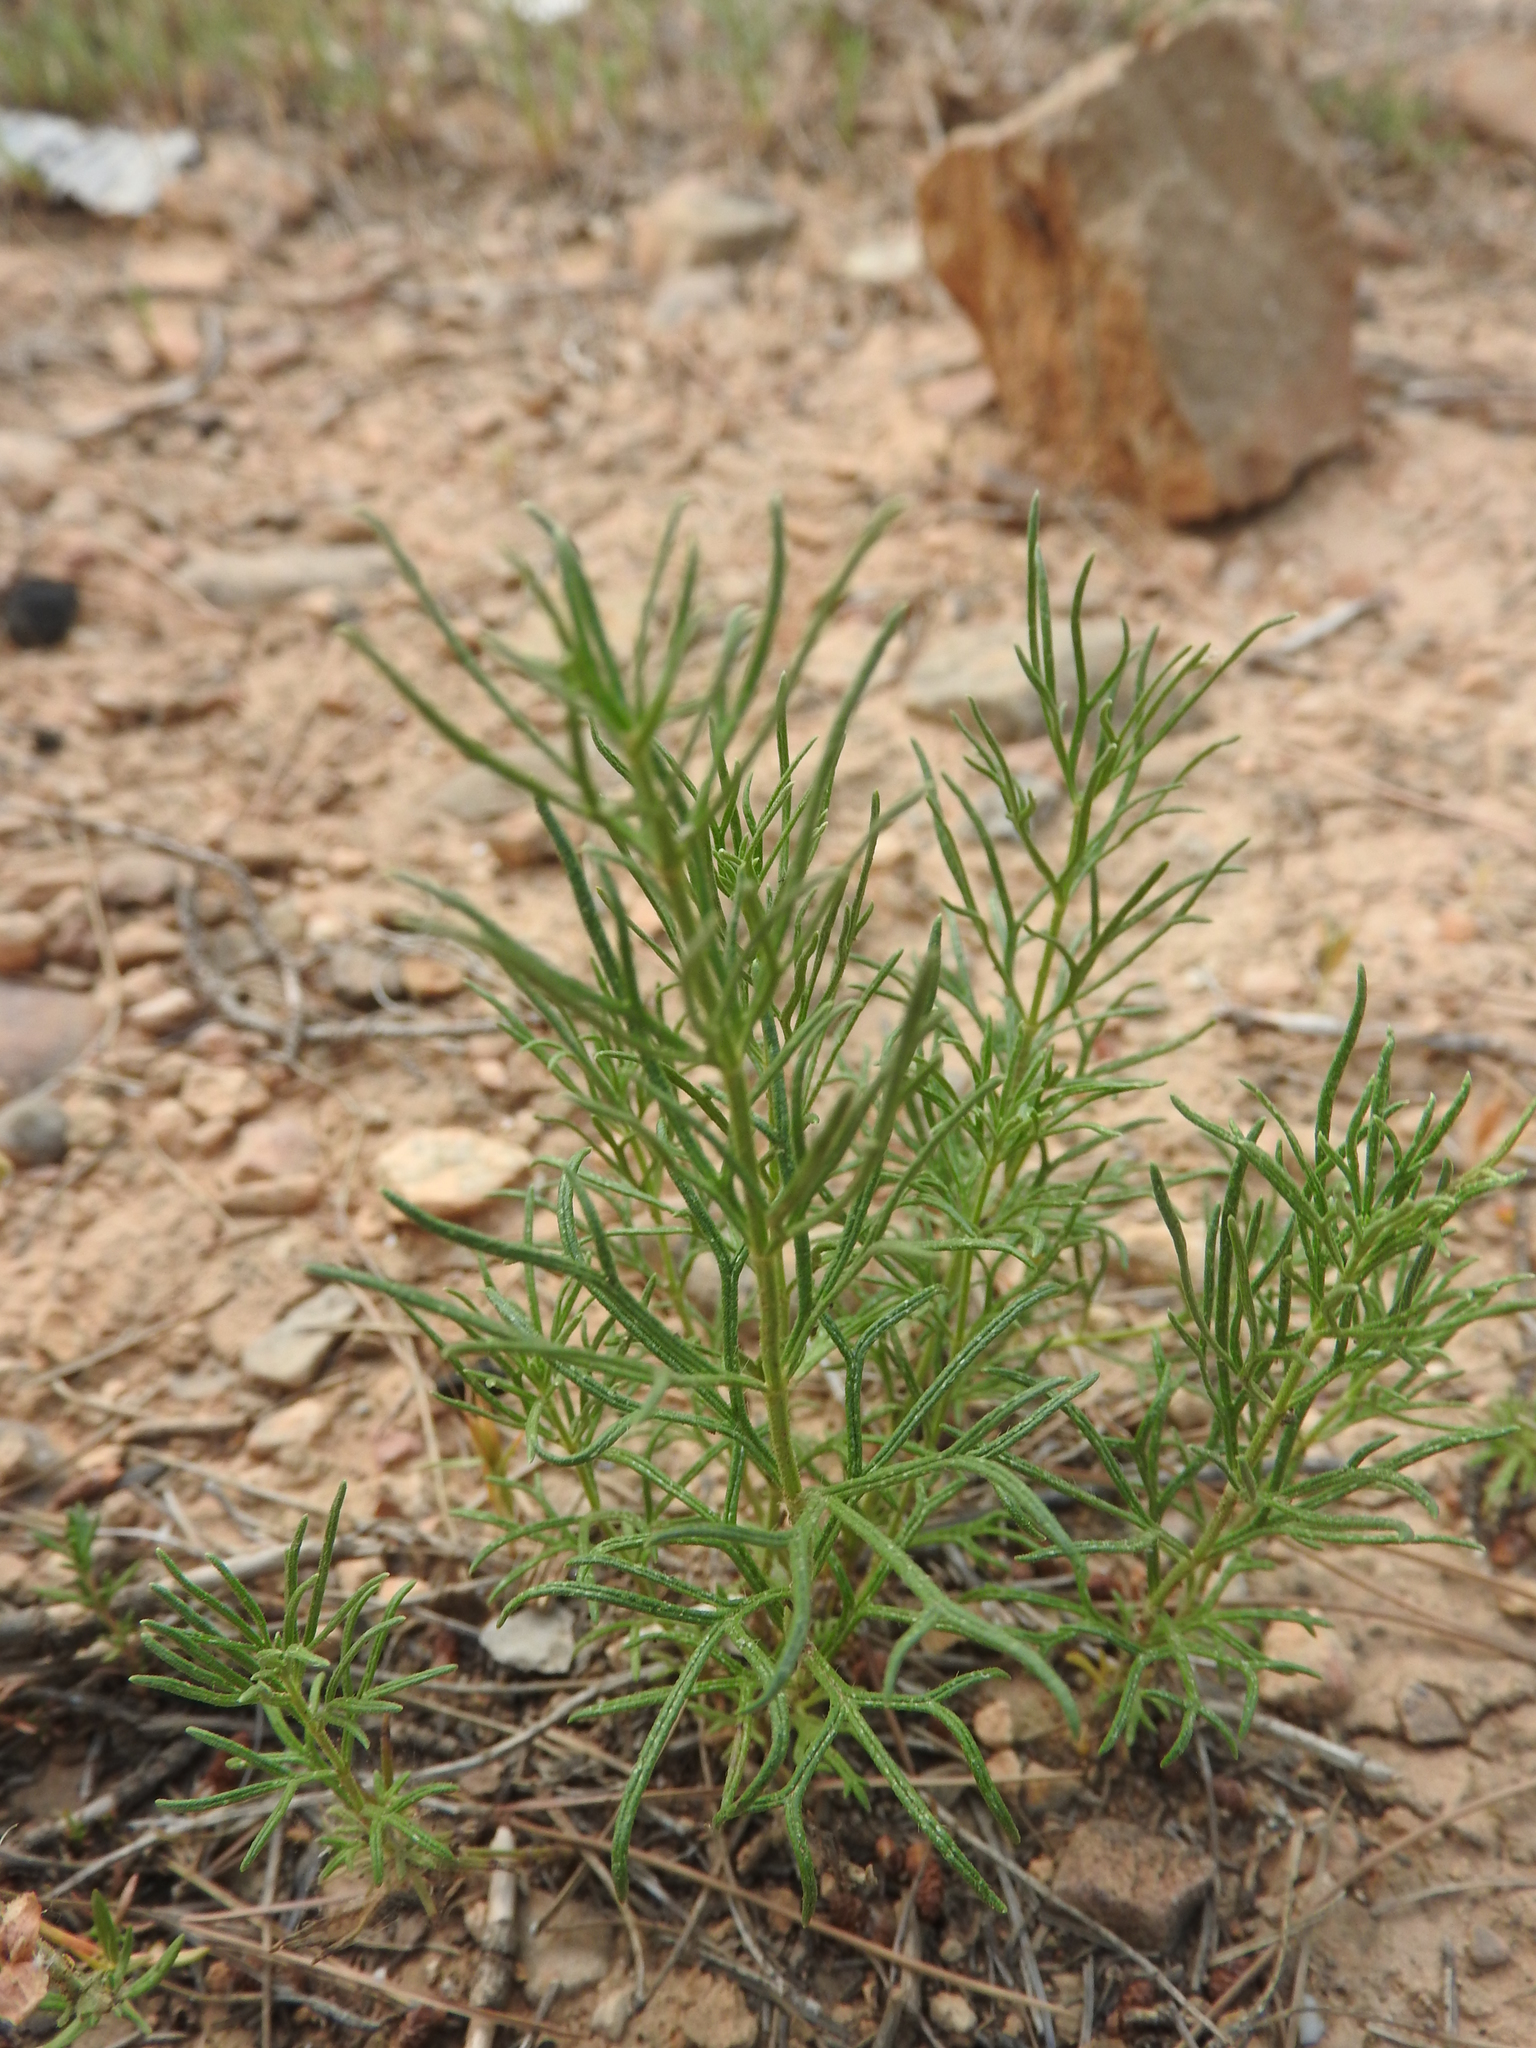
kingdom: Plantae
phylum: Tracheophyta
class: Magnoliopsida
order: Lamiales
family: Lamiaceae
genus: Teucrium
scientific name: Teucrium pseudochamaepitys
